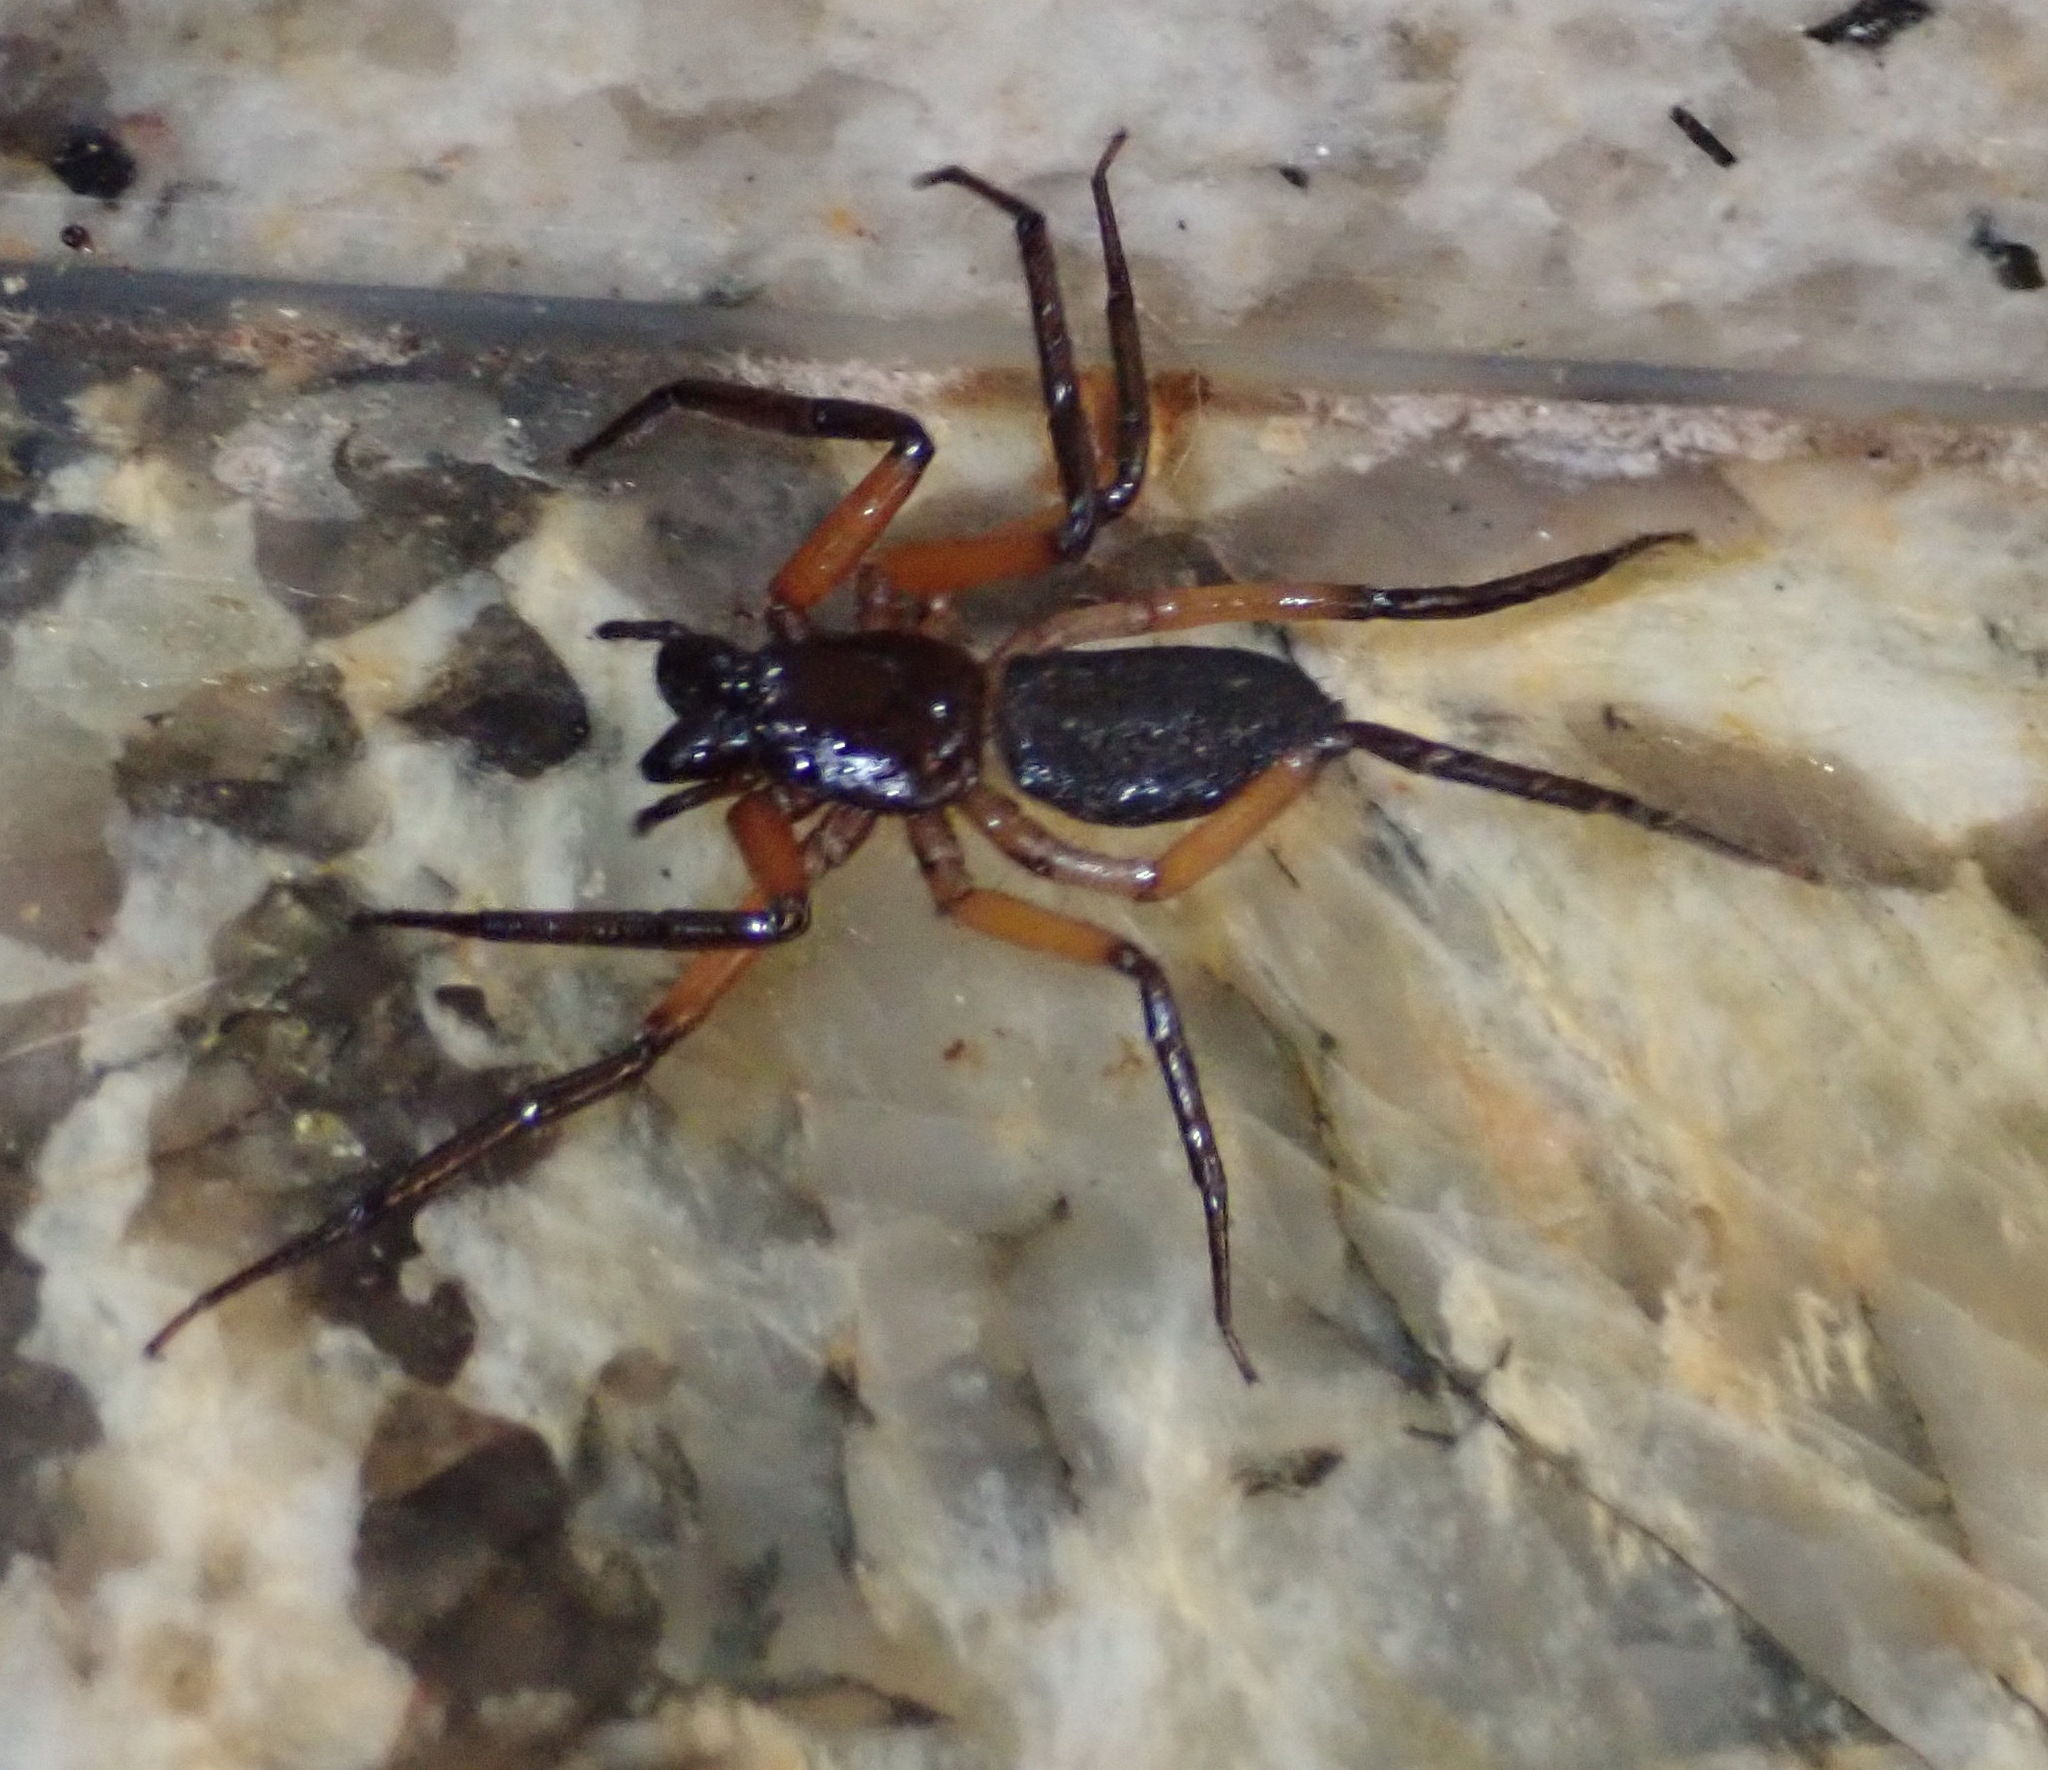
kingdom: Animalia
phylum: Arthropoda
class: Arachnida
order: Araneae
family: Trochanteriidae
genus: Platyoides
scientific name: Platyoides walteri
